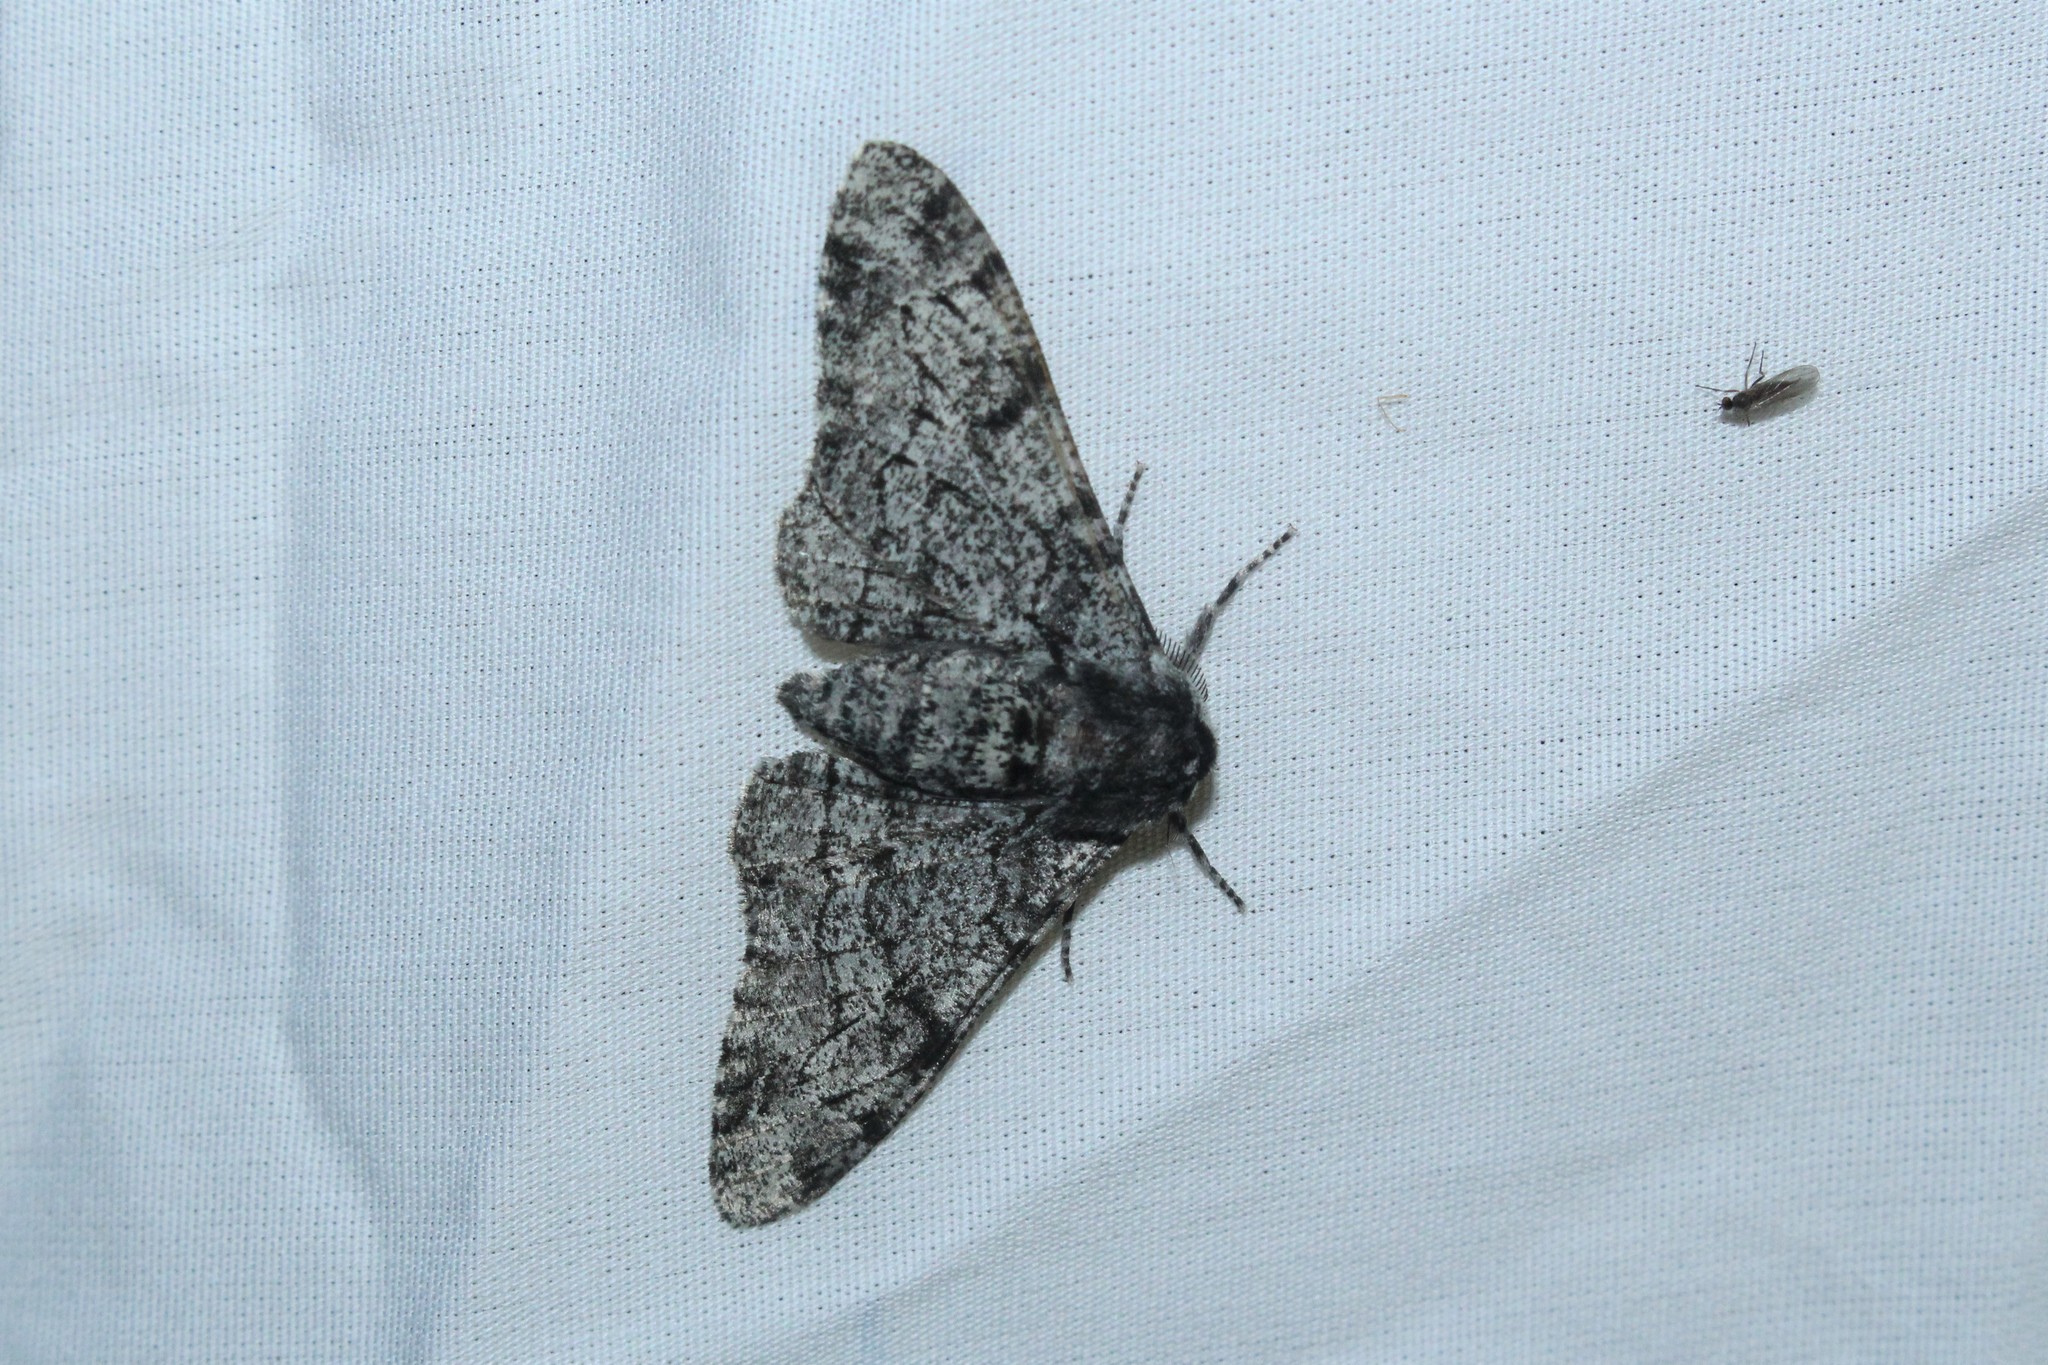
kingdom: Animalia
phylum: Arthropoda
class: Insecta
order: Lepidoptera
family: Geometridae
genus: Biston
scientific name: Biston betularia
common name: Peppered moth
